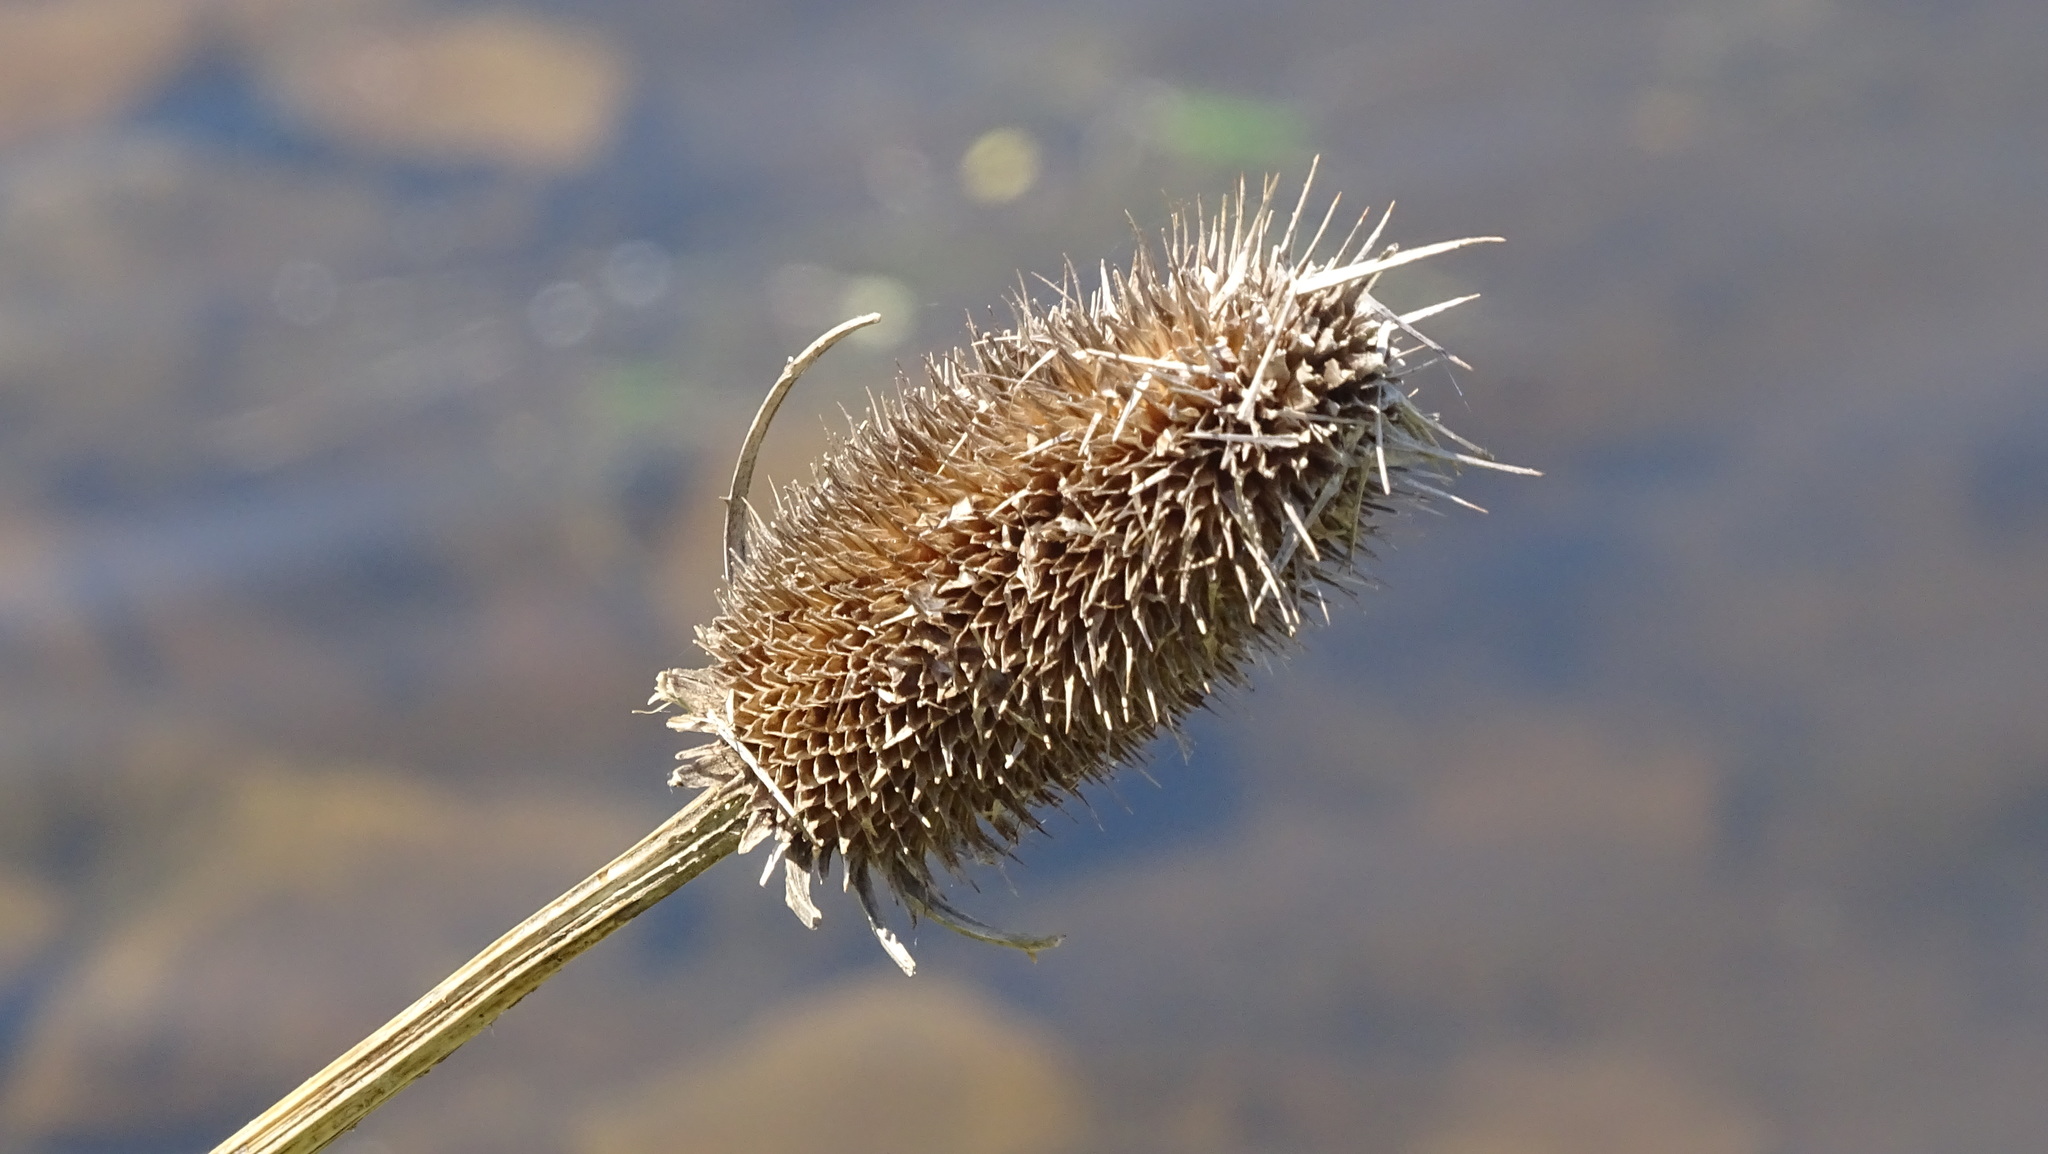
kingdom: Plantae
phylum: Tracheophyta
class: Magnoliopsida
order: Dipsacales
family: Caprifoliaceae
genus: Dipsacus
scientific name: Dipsacus fullonum
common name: Teasel
